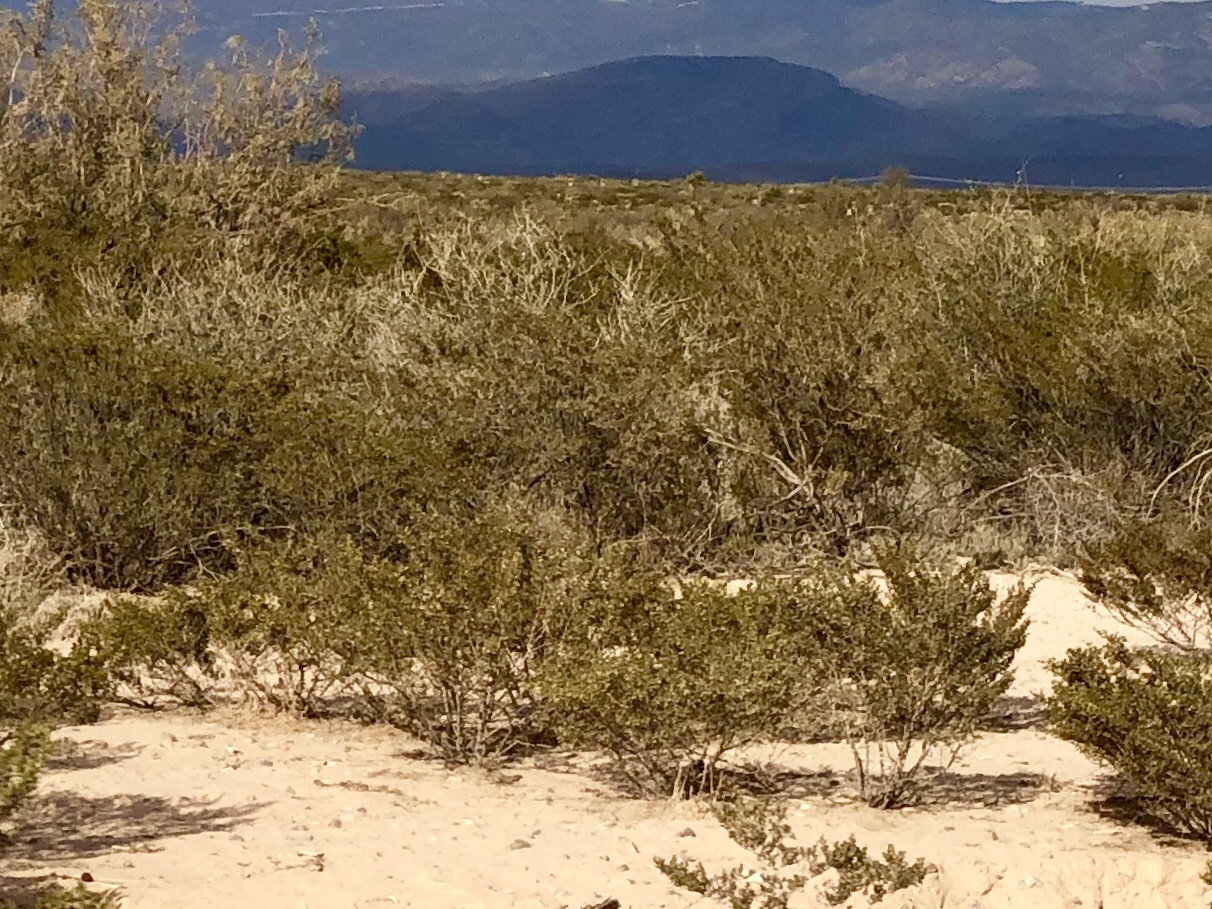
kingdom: Plantae
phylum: Tracheophyta
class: Magnoliopsida
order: Zygophyllales
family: Zygophyllaceae
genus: Larrea
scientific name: Larrea tridentata
